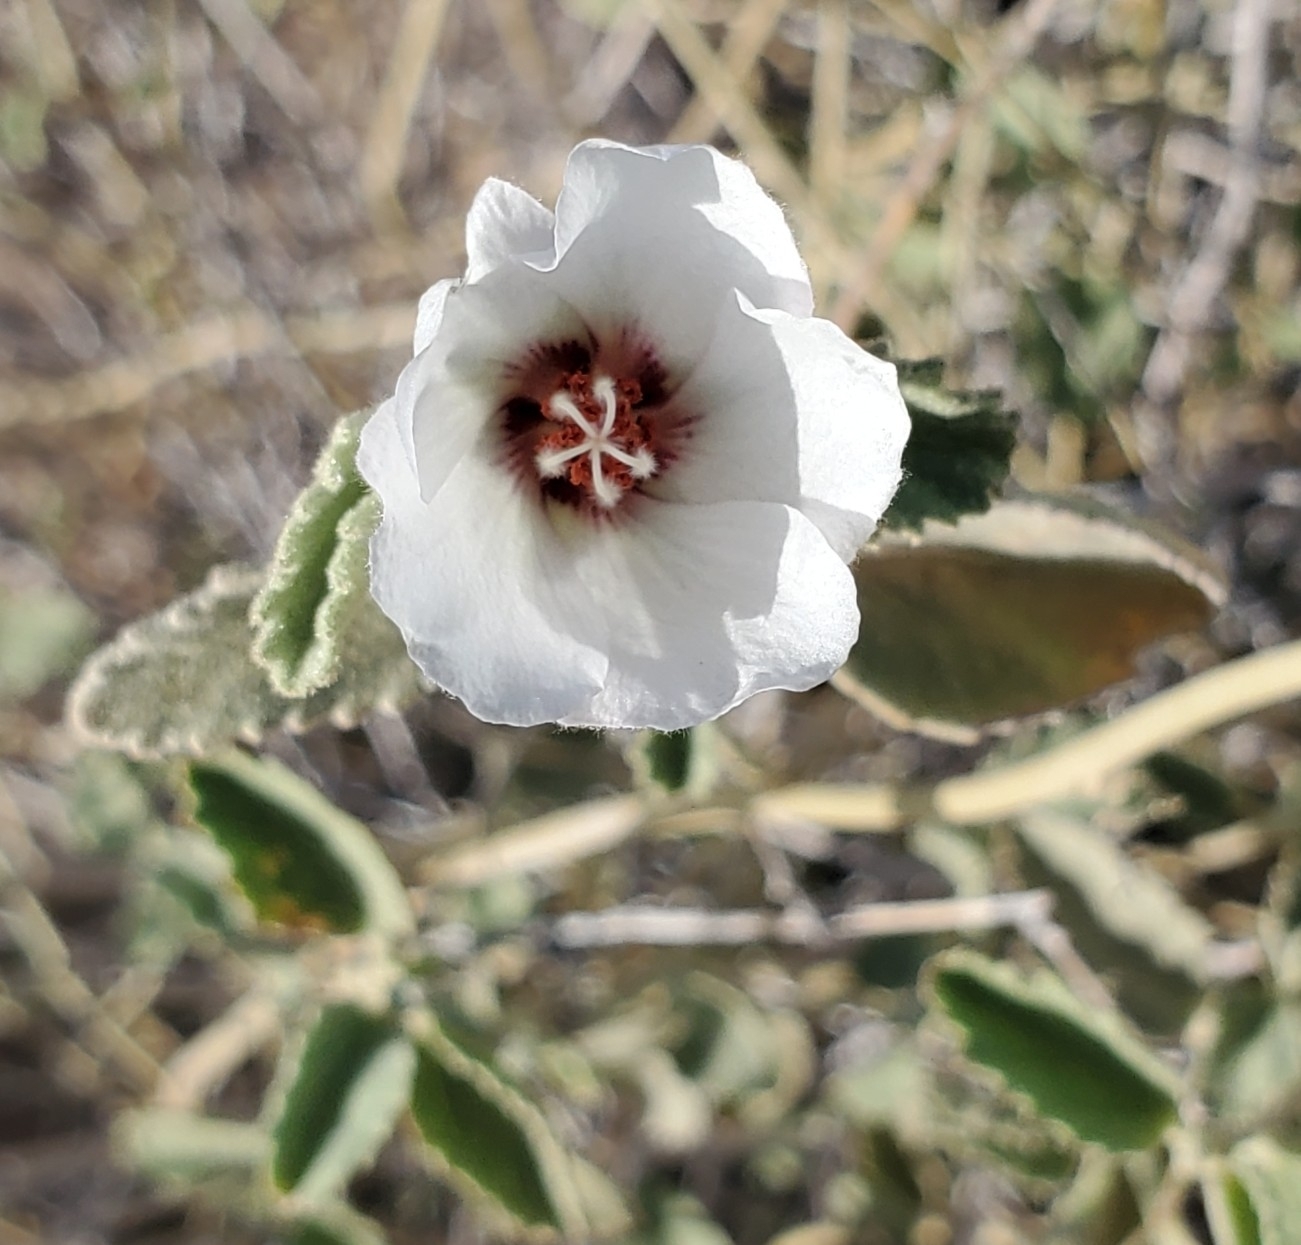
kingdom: Plantae
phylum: Tracheophyta
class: Magnoliopsida
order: Malvales
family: Malvaceae
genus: Hibiscus
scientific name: Hibiscus denudatus
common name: Paleface
